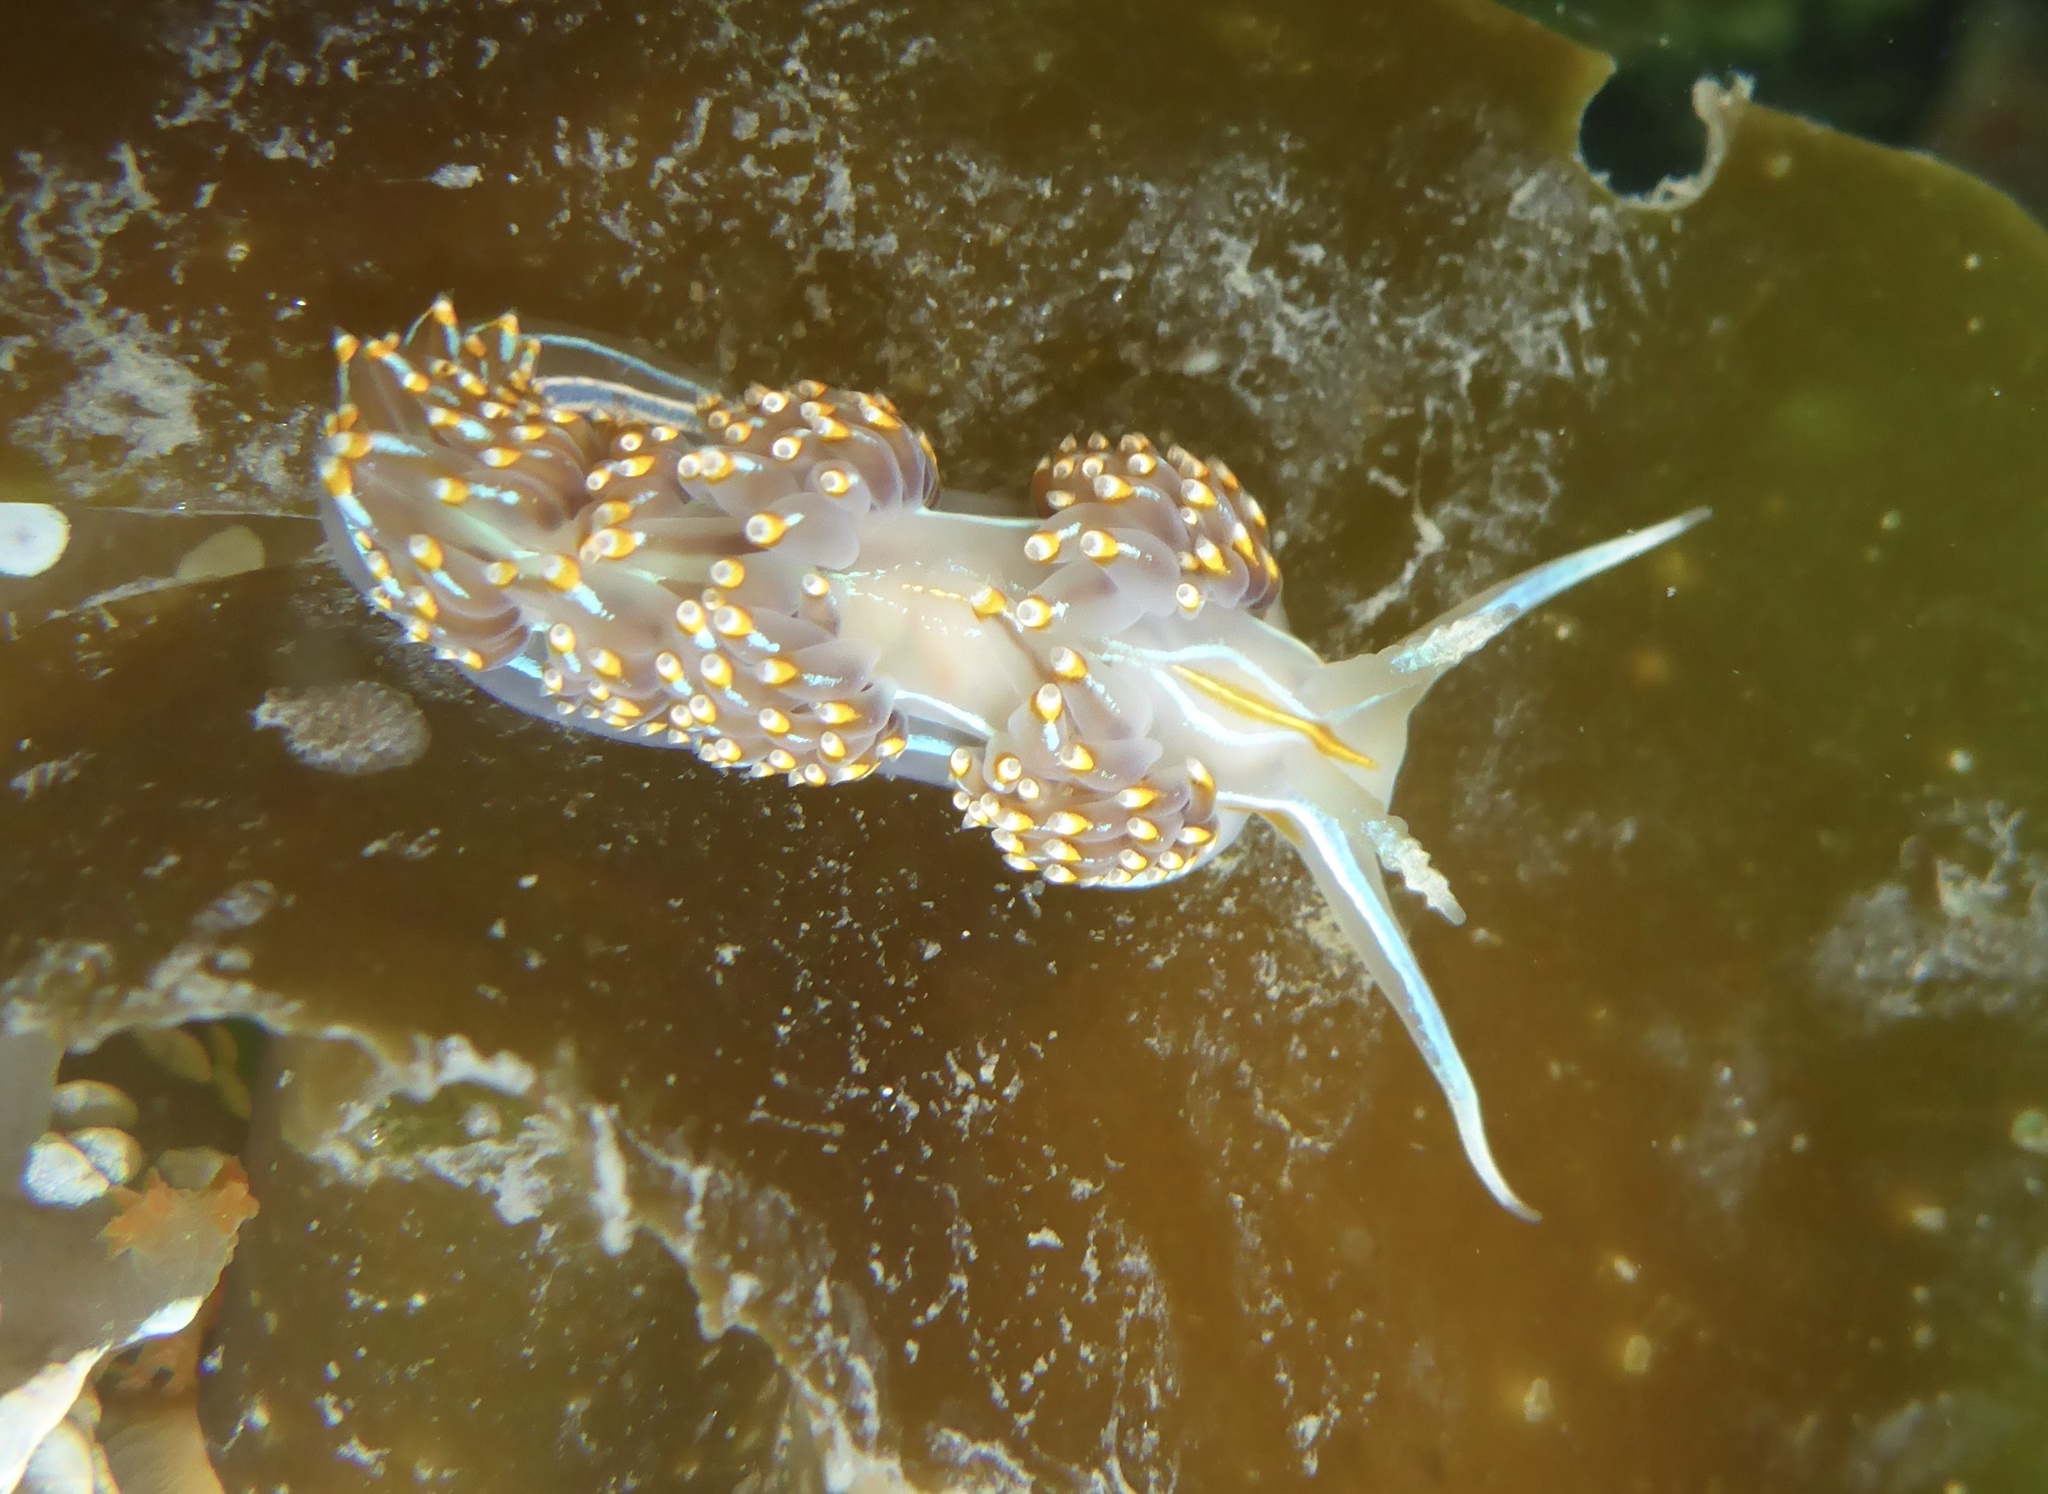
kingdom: Animalia
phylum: Mollusca
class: Gastropoda
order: Nudibranchia
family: Myrrhinidae
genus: Hermissenda
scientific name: Hermissenda opalescens
